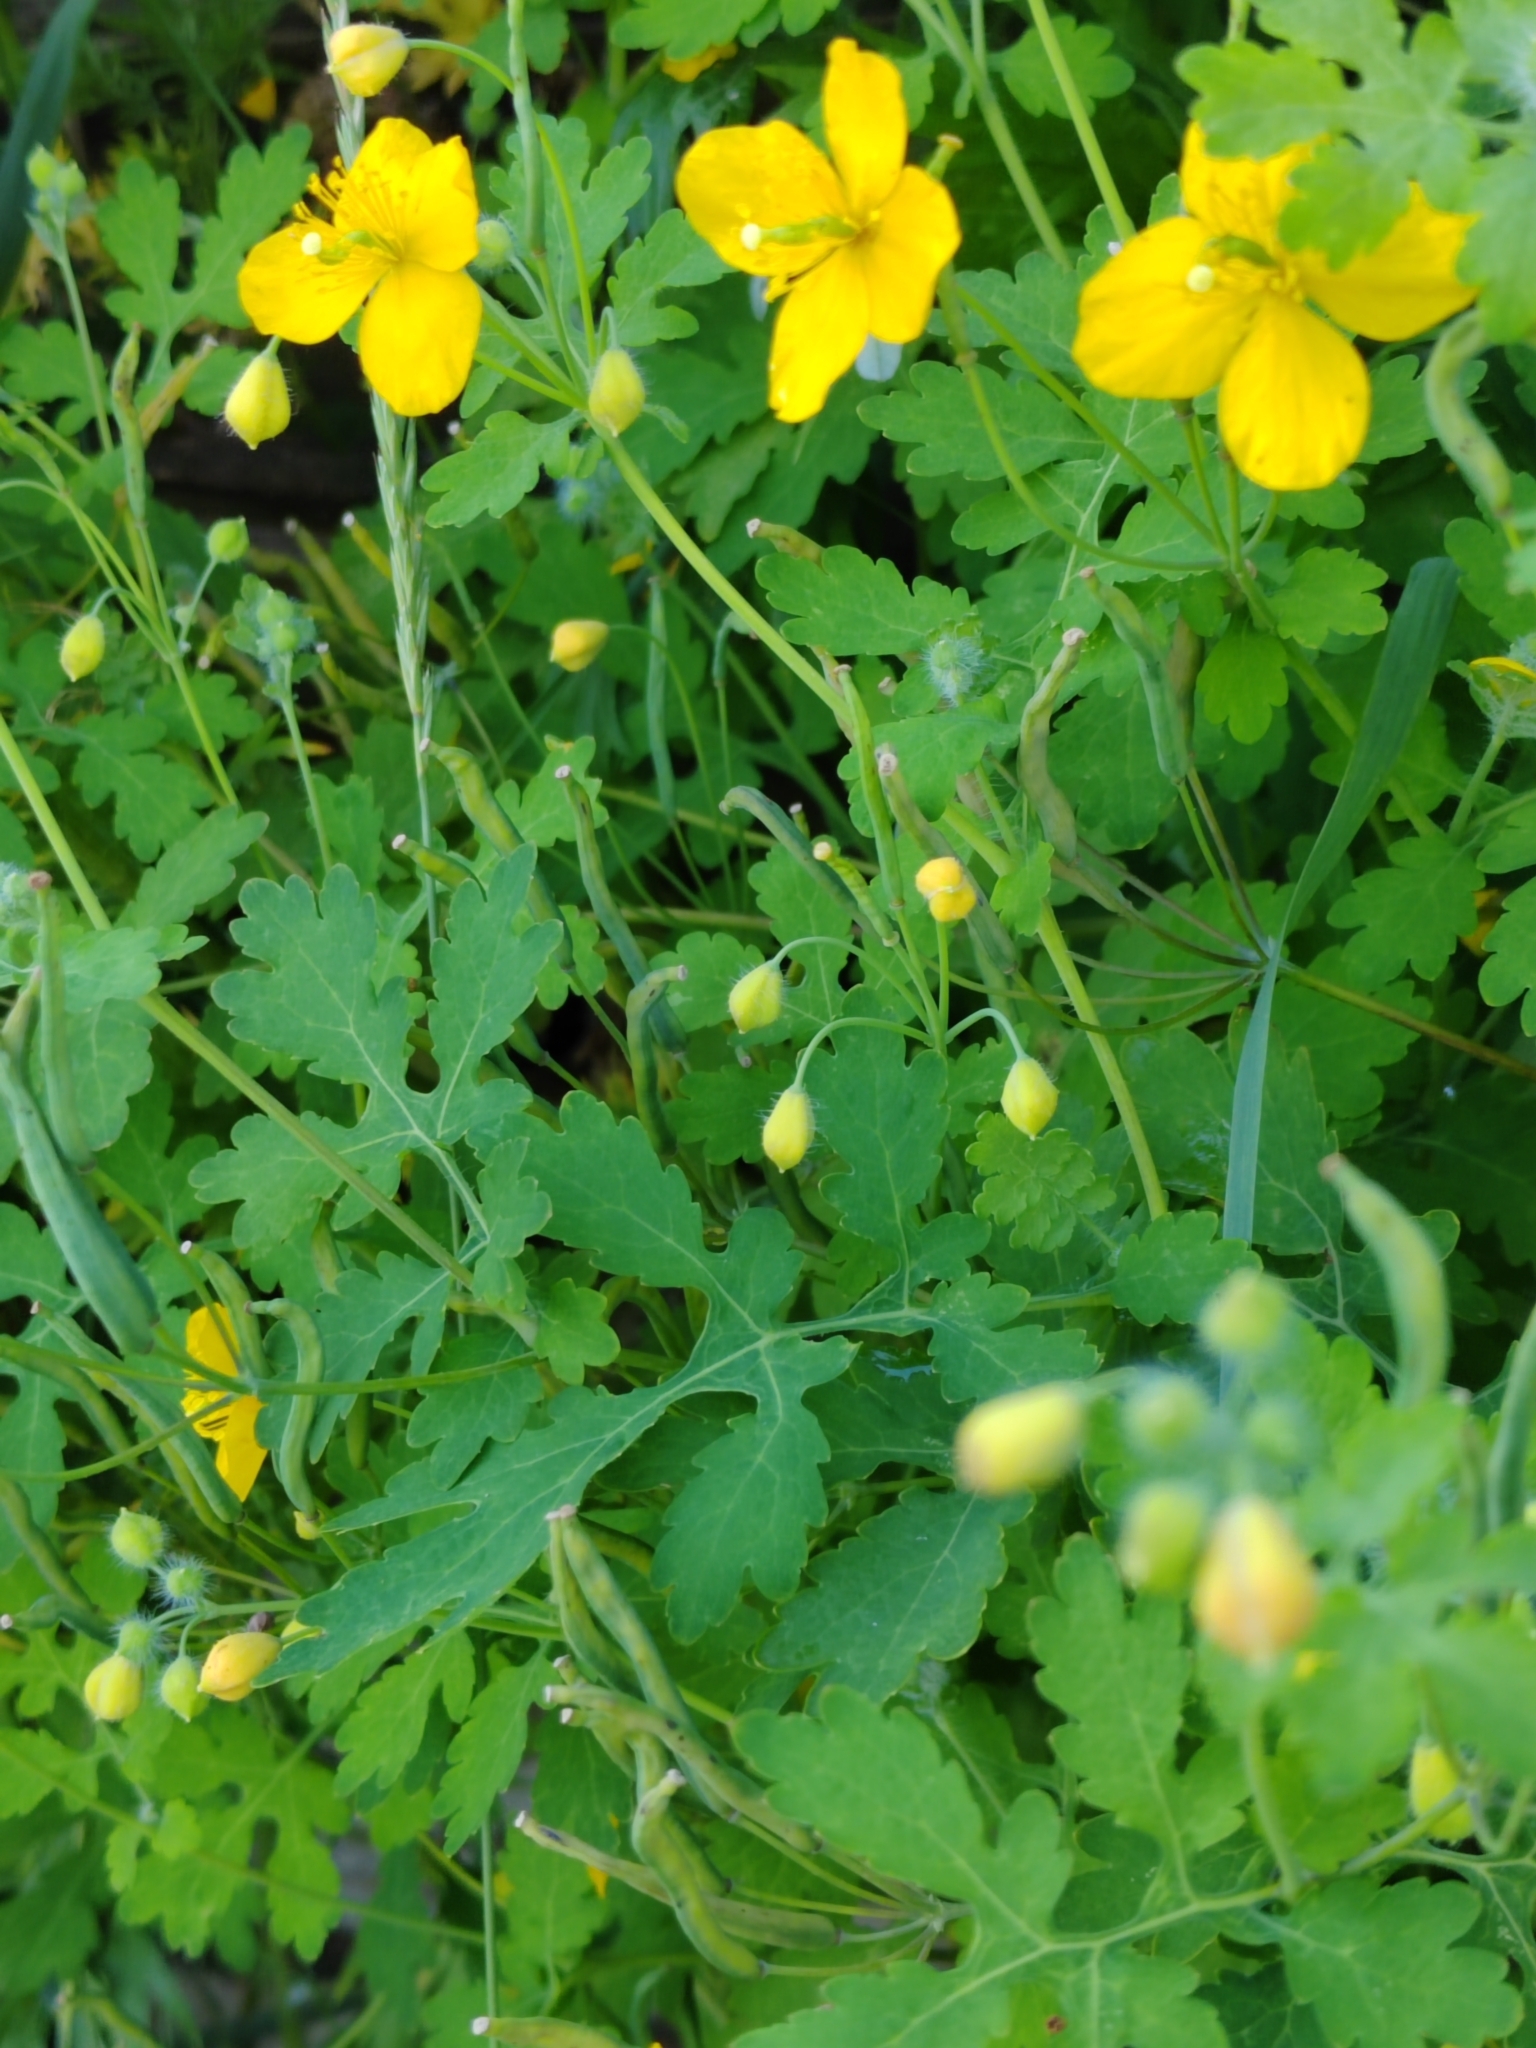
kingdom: Plantae
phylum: Tracheophyta
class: Magnoliopsida
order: Ranunculales
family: Papaveraceae
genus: Chelidonium
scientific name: Chelidonium majus
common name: Greater celandine
